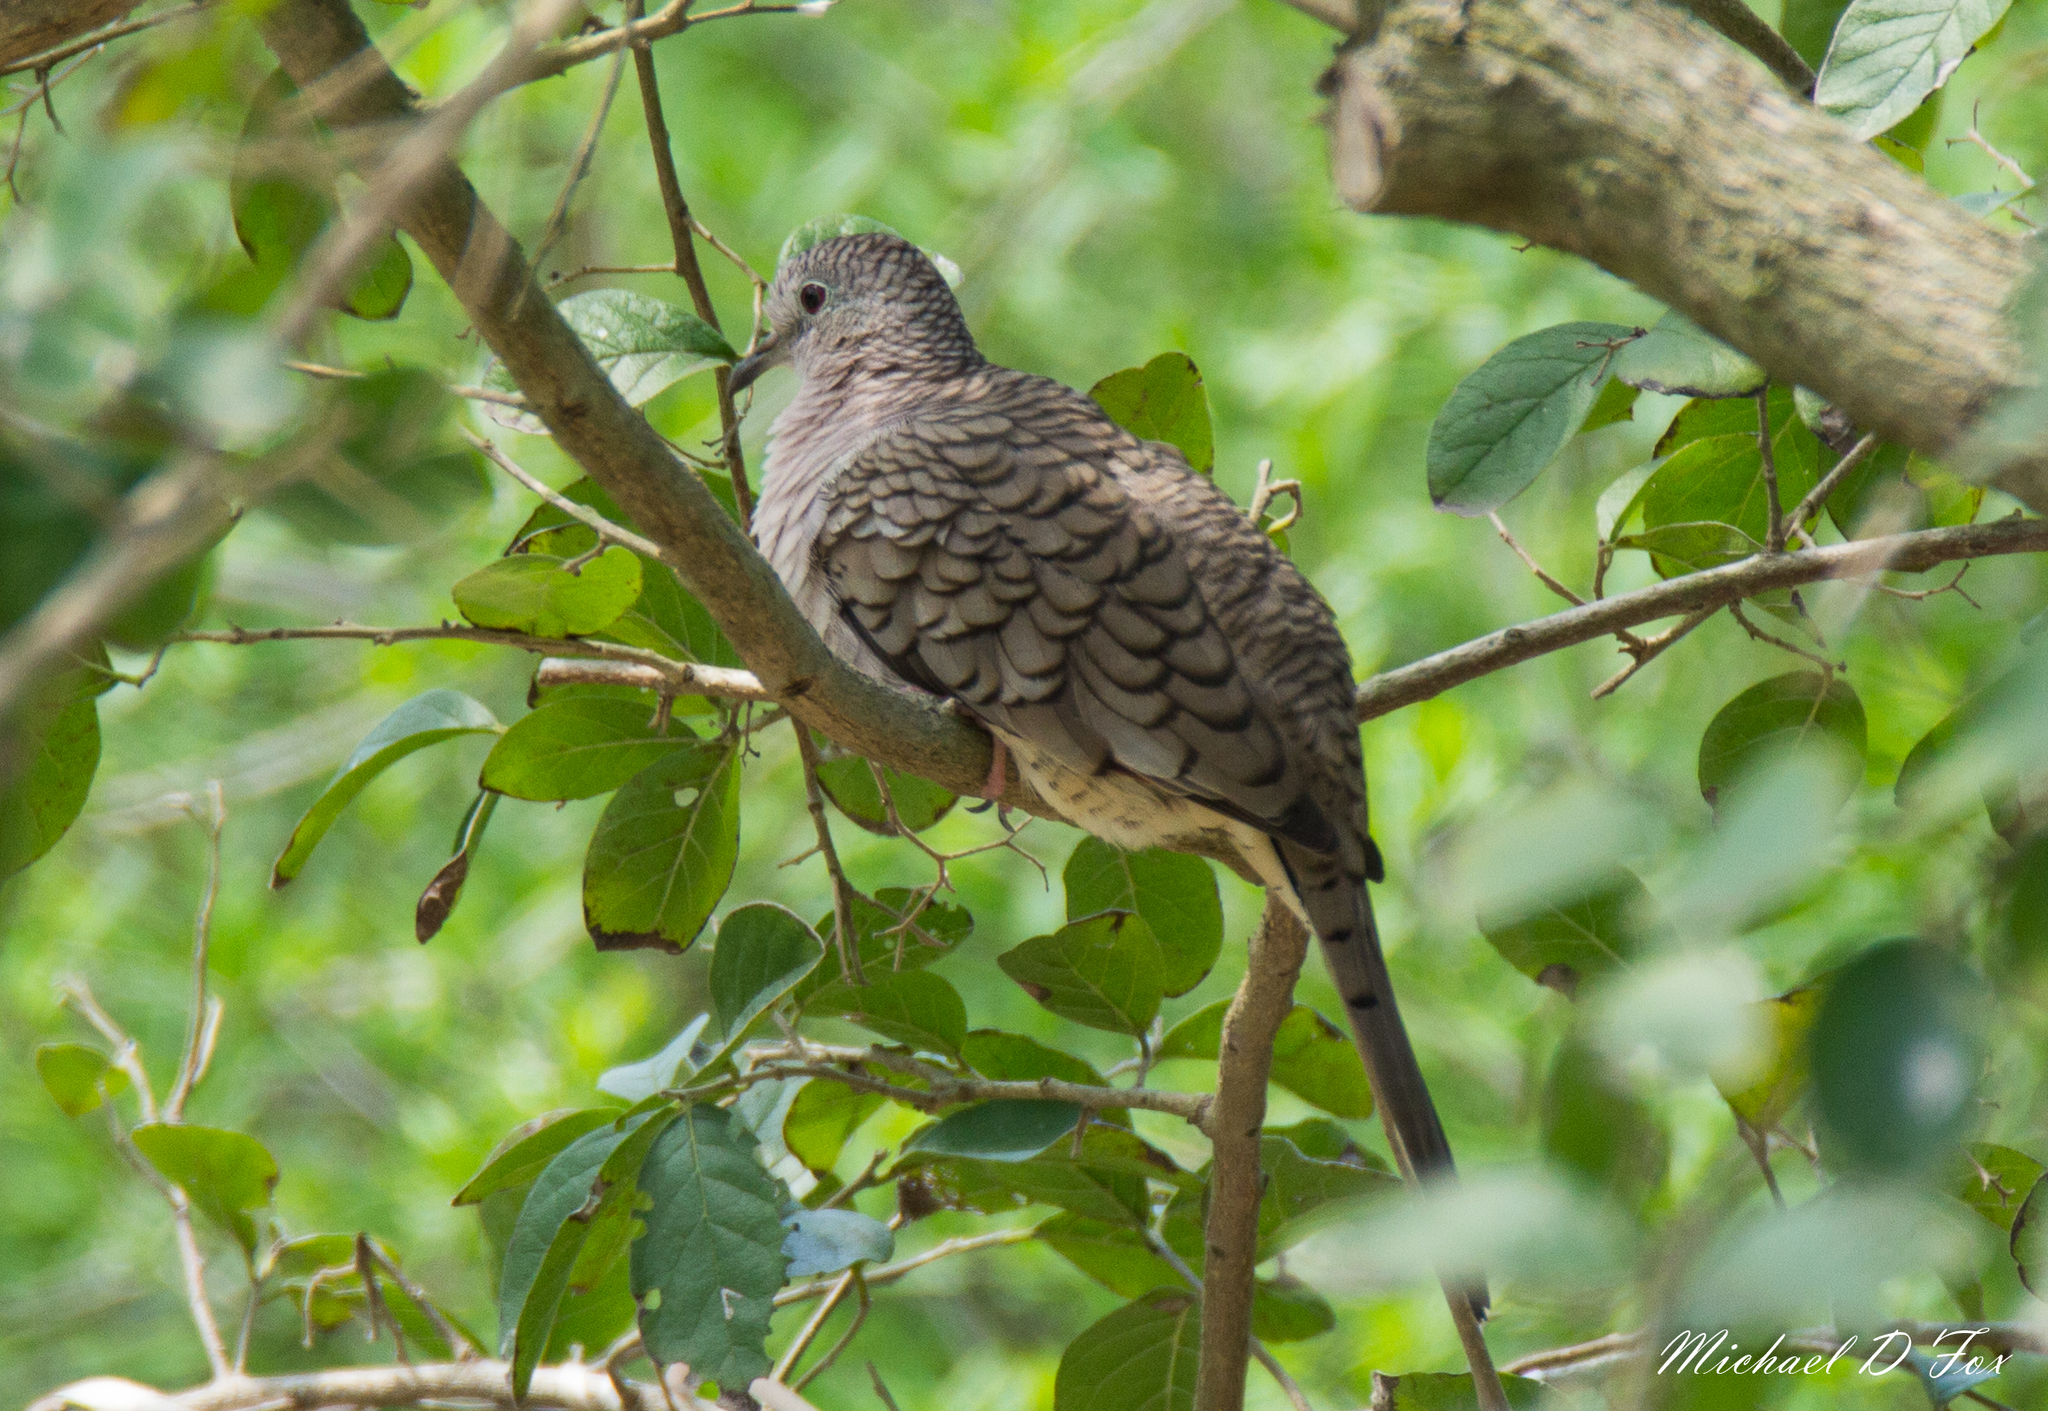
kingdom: Animalia
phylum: Chordata
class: Aves
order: Columbiformes
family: Columbidae
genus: Columbina
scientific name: Columbina inca
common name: Inca dove
